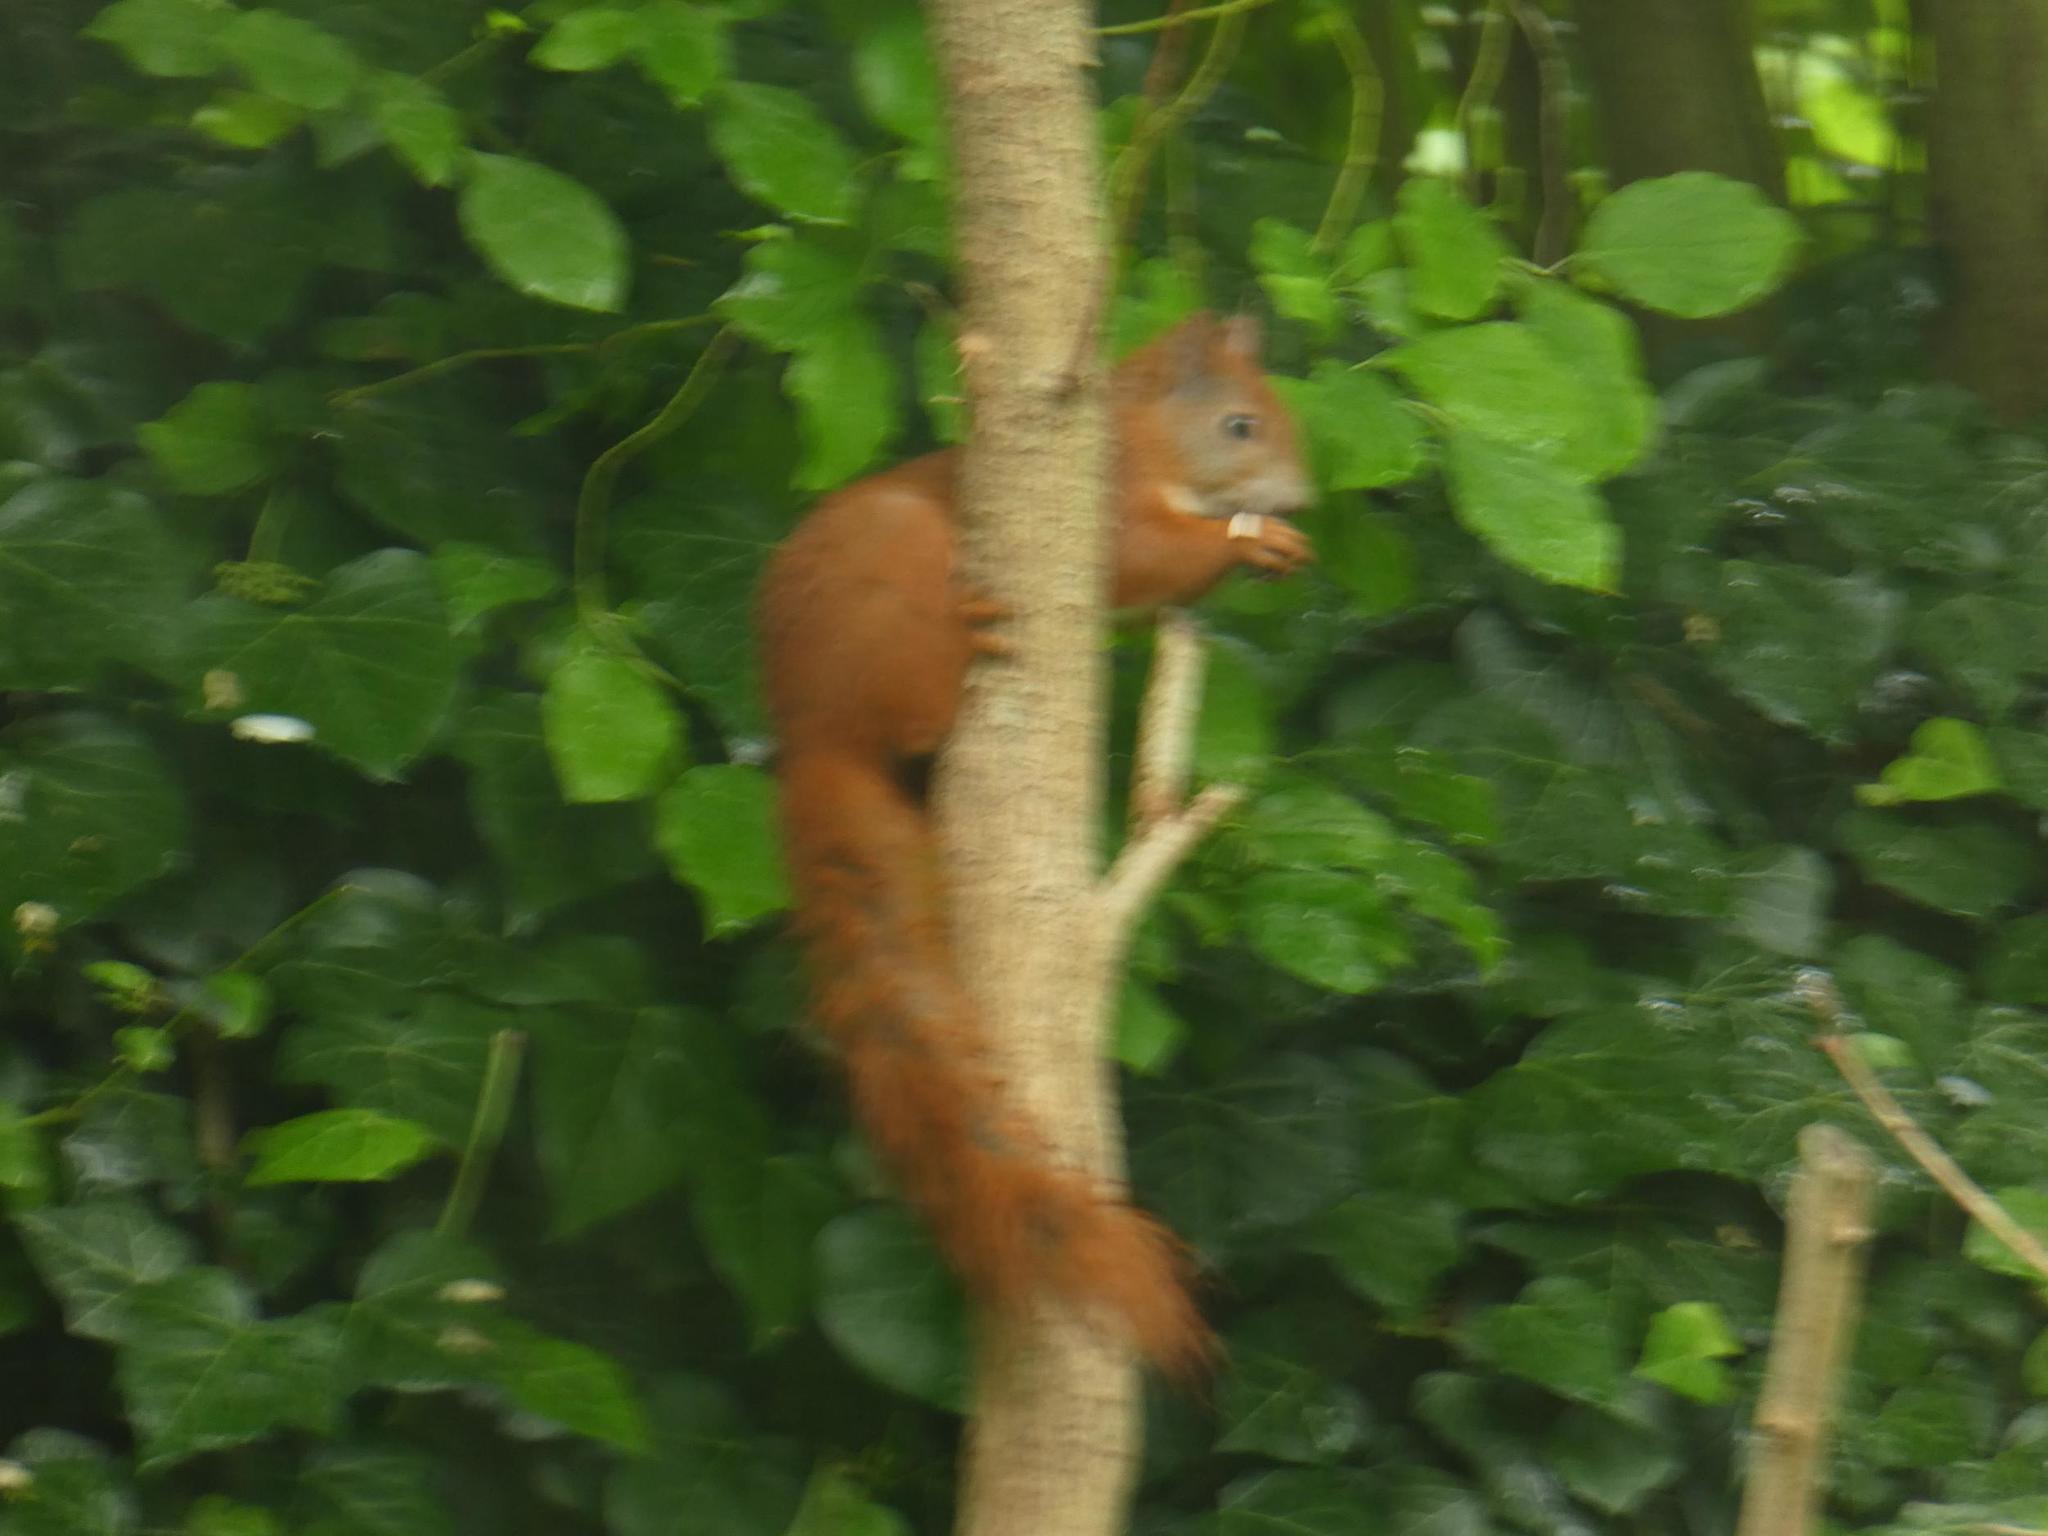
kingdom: Animalia
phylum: Chordata
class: Mammalia
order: Rodentia
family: Sciuridae
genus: Sciurus
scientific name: Sciurus vulgaris
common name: Eurasian red squirrel
